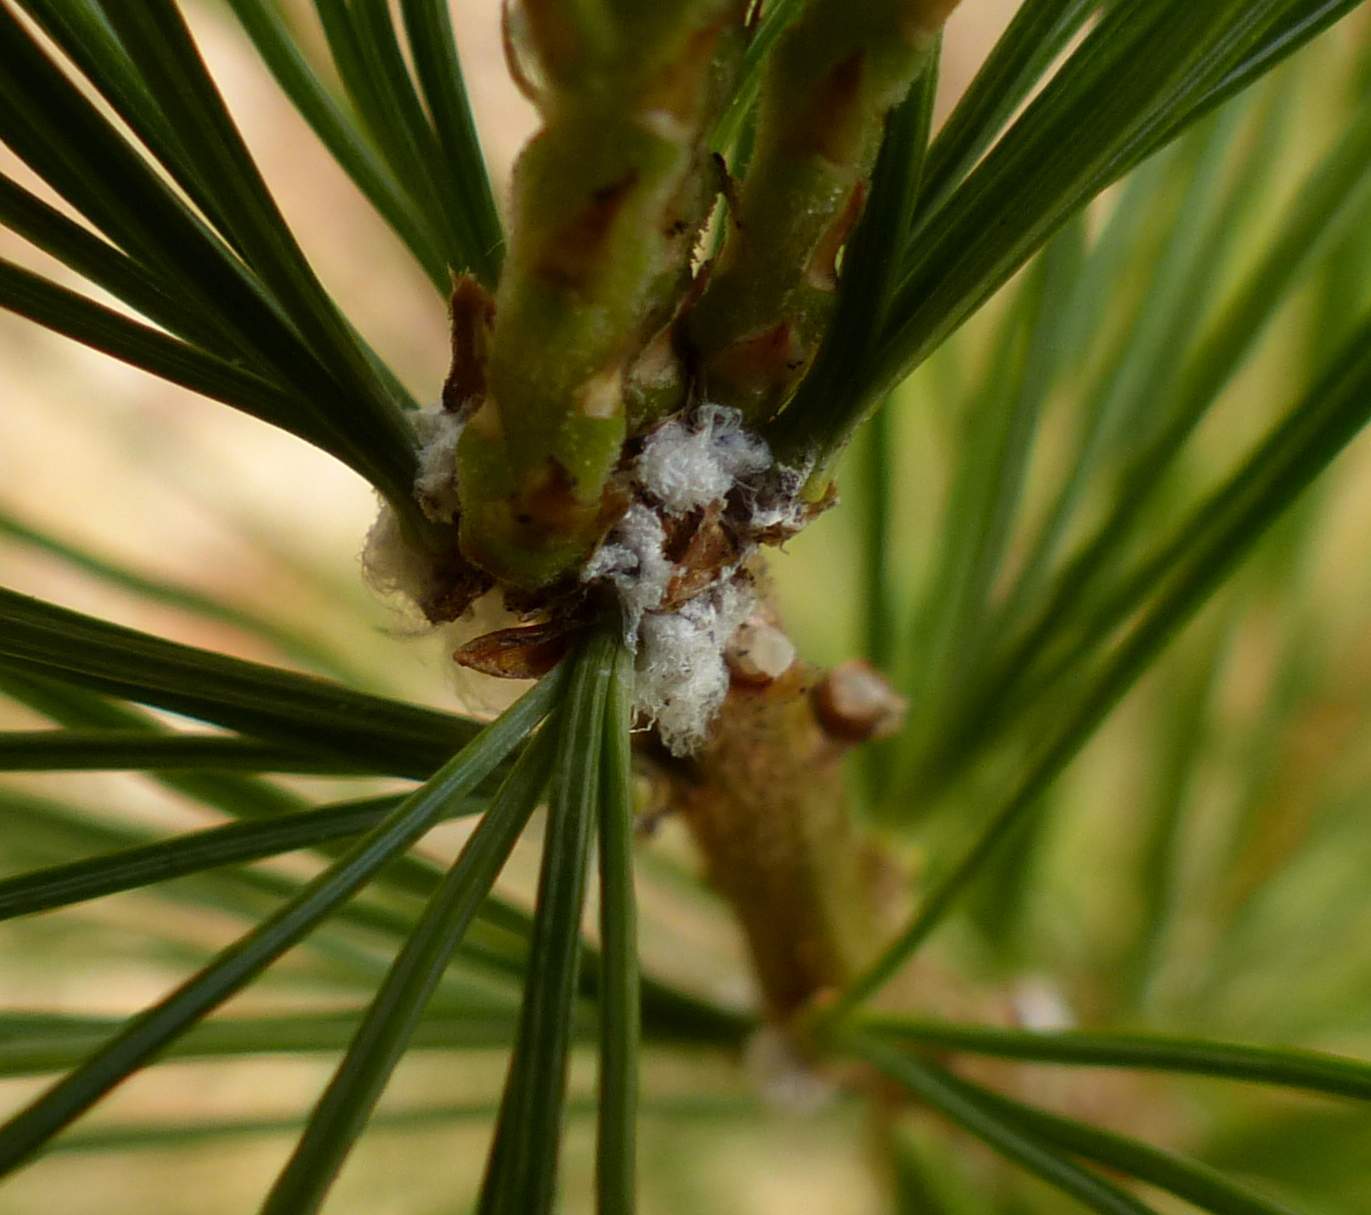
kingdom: Animalia
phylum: Arthropoda
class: Insecta
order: Hemiptera
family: Adelgidae
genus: Pineus
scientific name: Pineus strobi
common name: Pine bark adelgid
